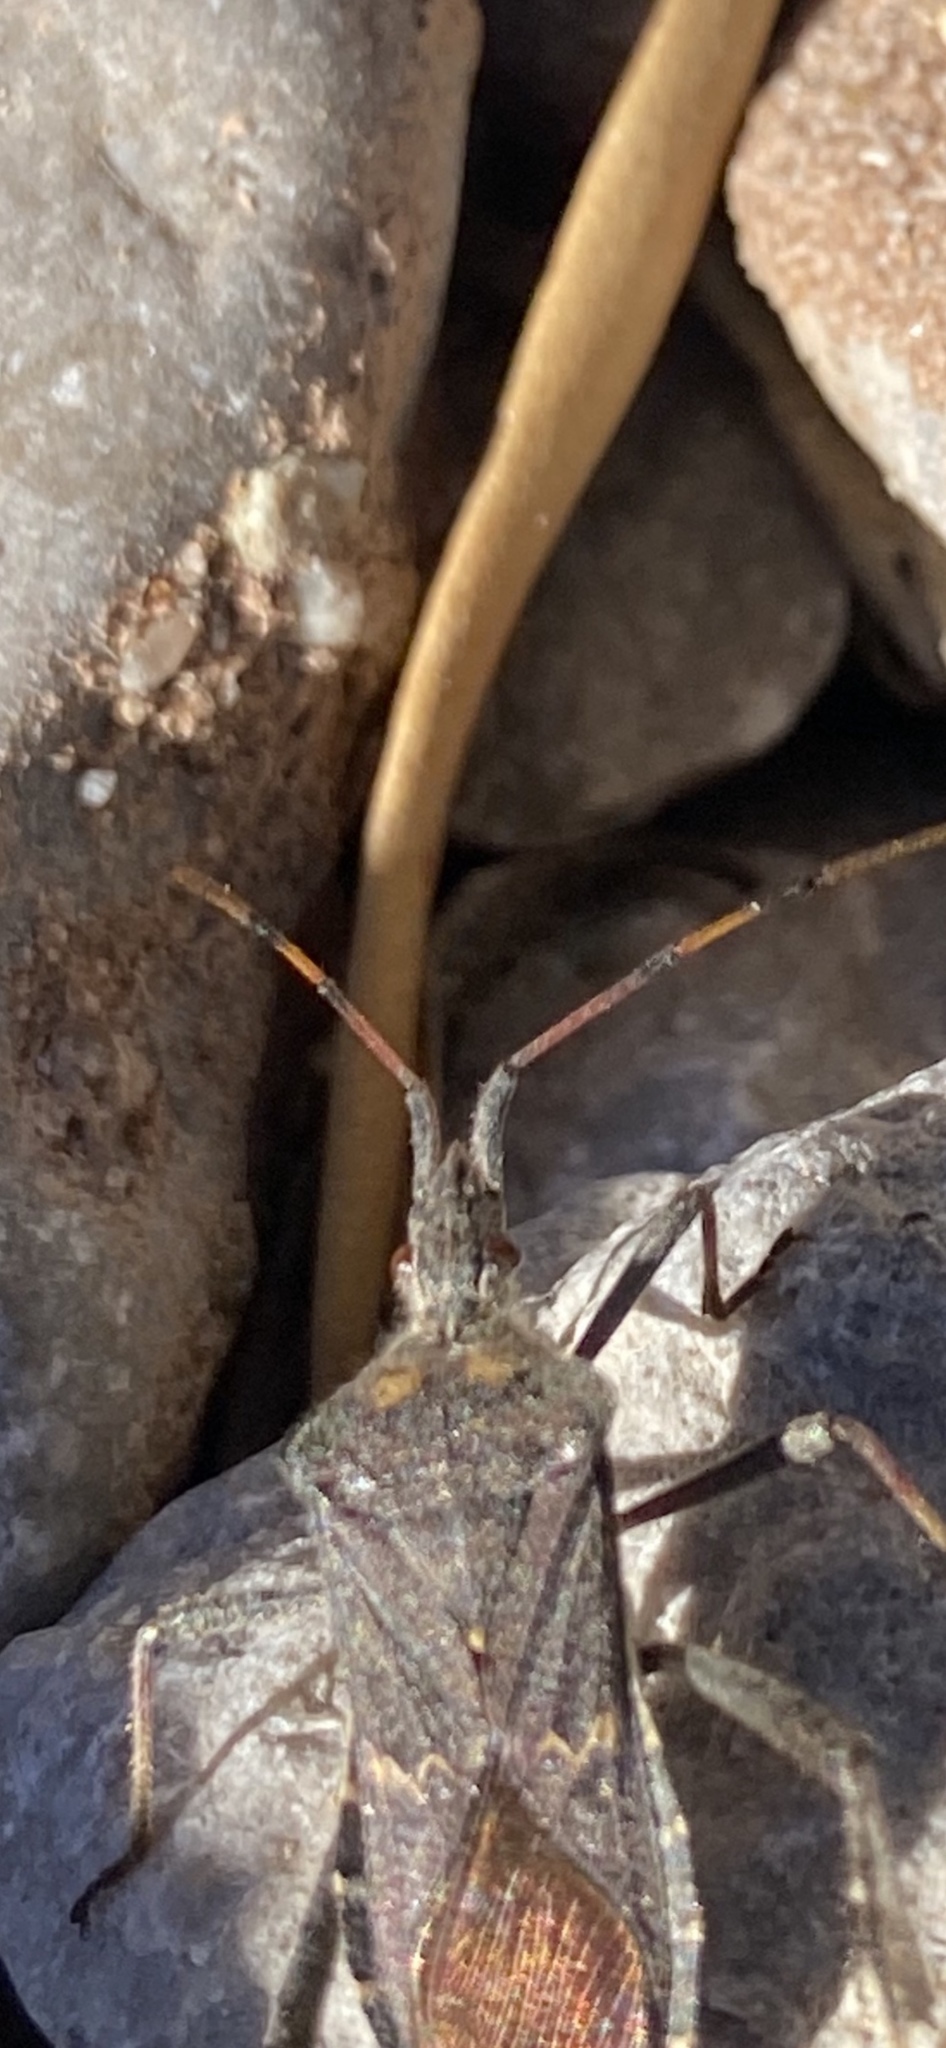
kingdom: Animalia
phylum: Arthropoda
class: Insecta
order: Hemiptera
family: Coreidae
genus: Leptoglossus
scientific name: Leptoglossus zonatus
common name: Large-legged bug
